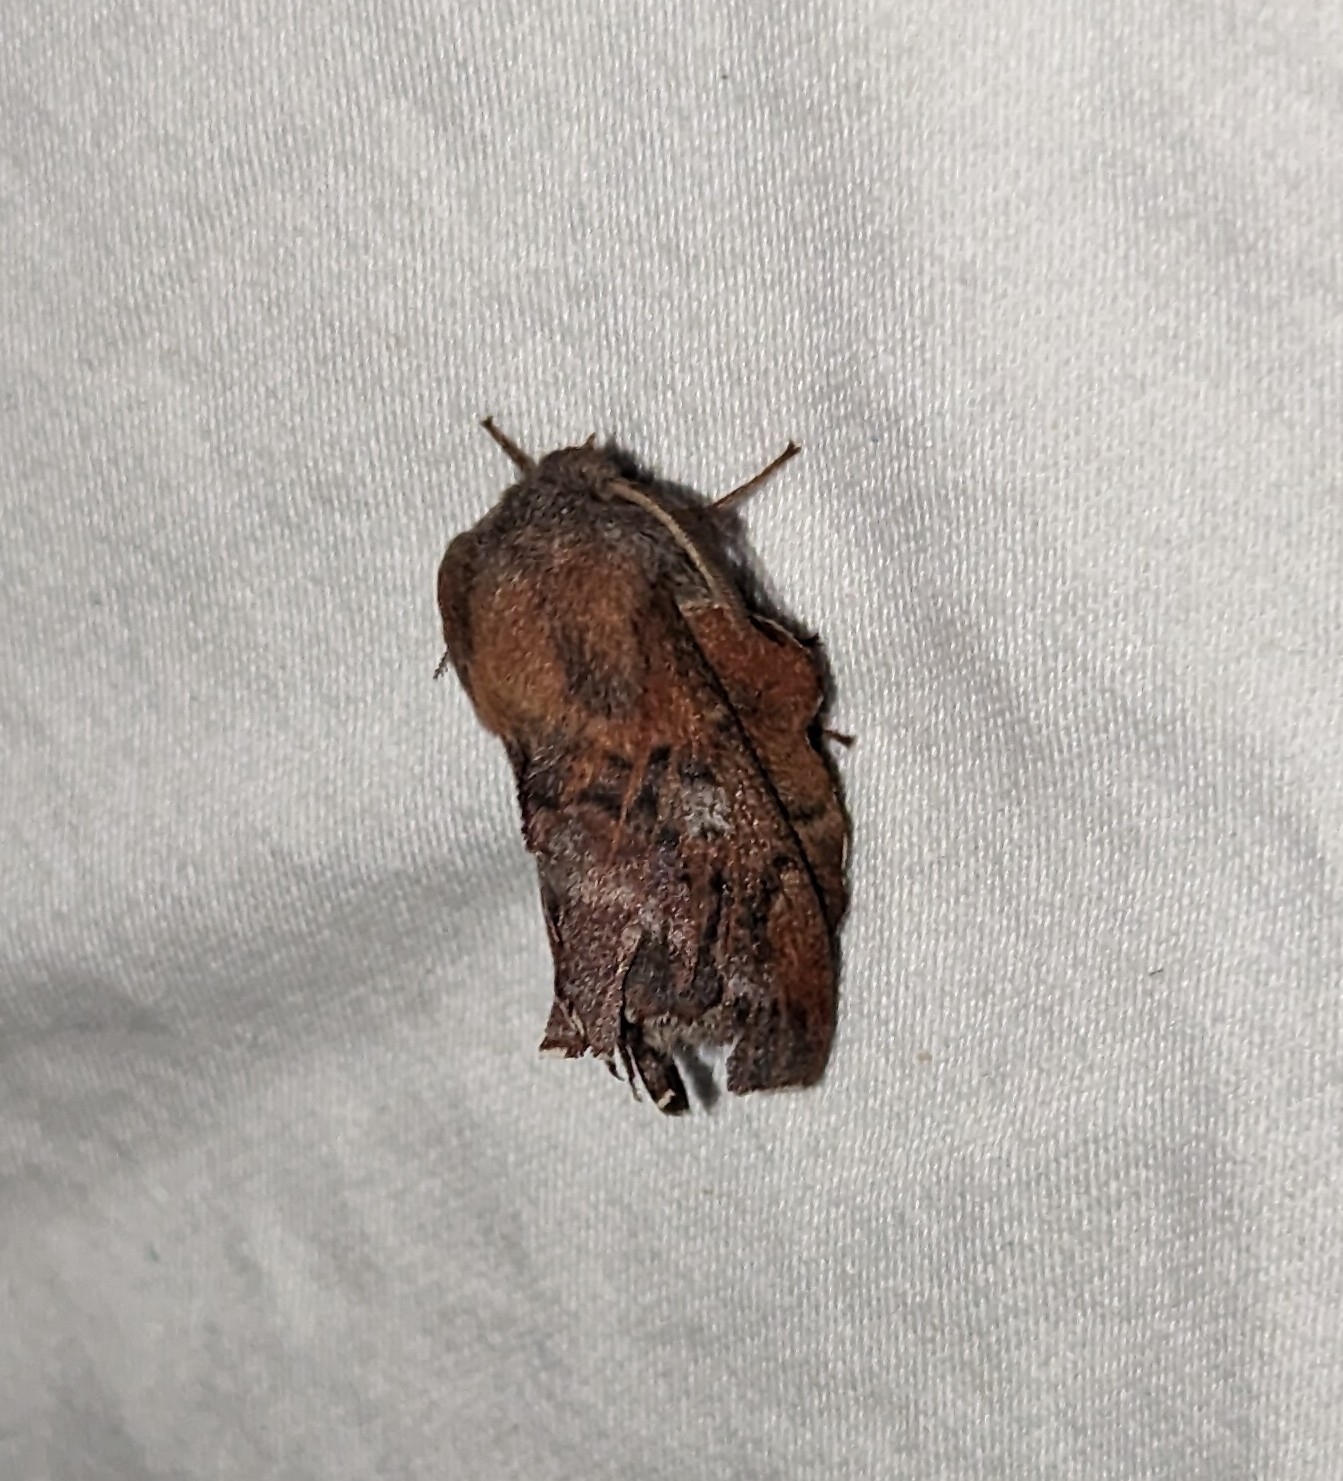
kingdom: Animalia
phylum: Arthropoda
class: Insecta
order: Lepidoptera
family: Lasiocampidae
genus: Phyllodesma
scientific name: Phyllodesma americana
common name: American lappet moth
